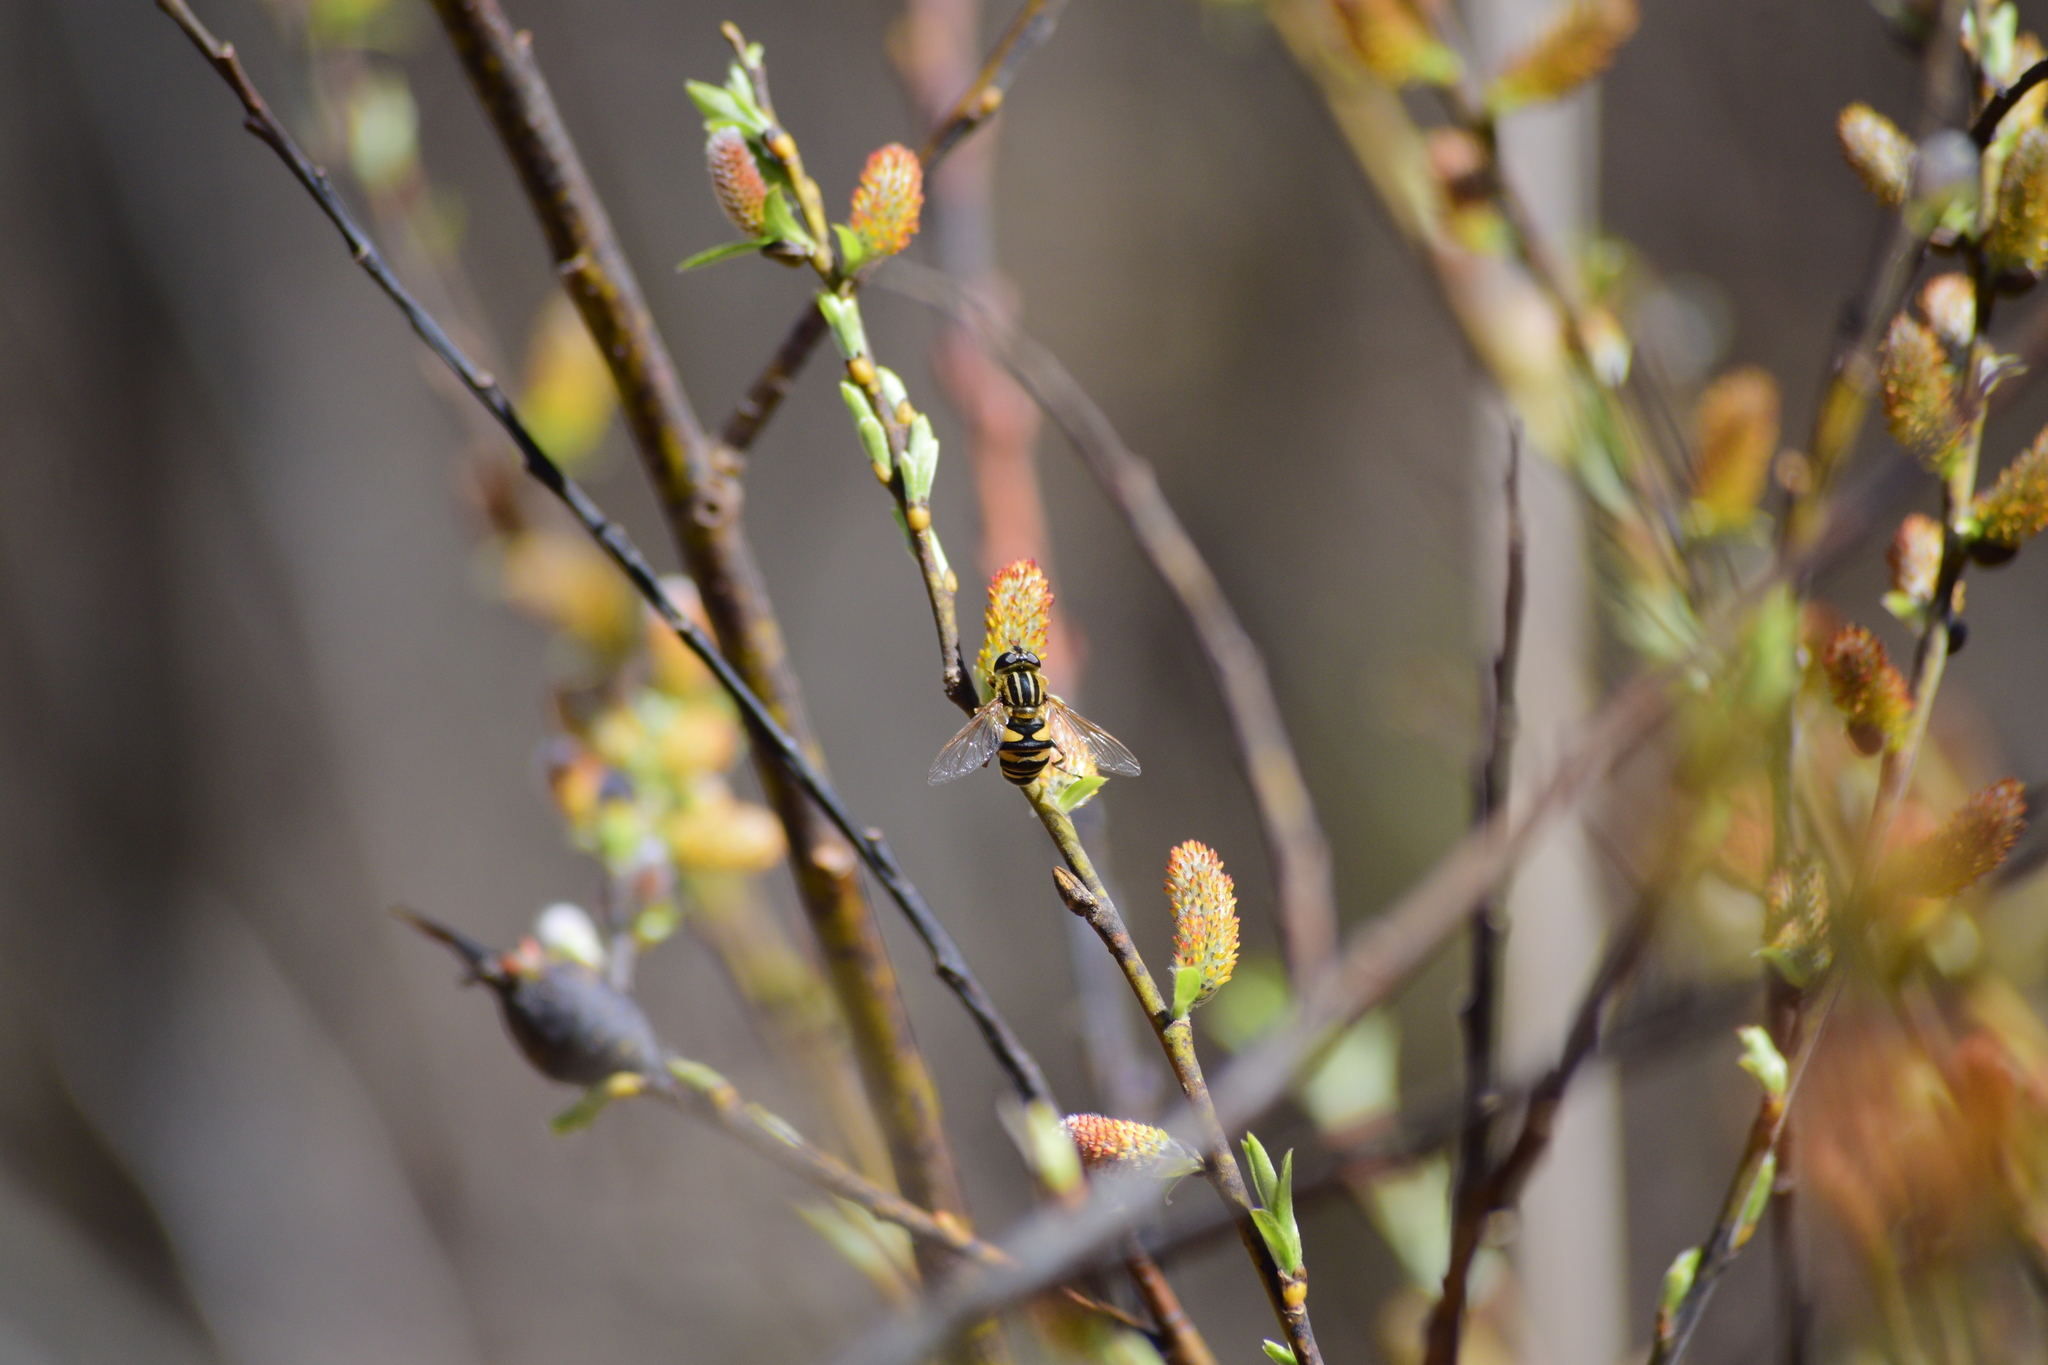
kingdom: Animalia
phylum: Arthropoda
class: Insecta
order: Diptera
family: Syrphidae
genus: Helophilus
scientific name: Helophilus fasciatus
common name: Narrow-headed marsh fly
